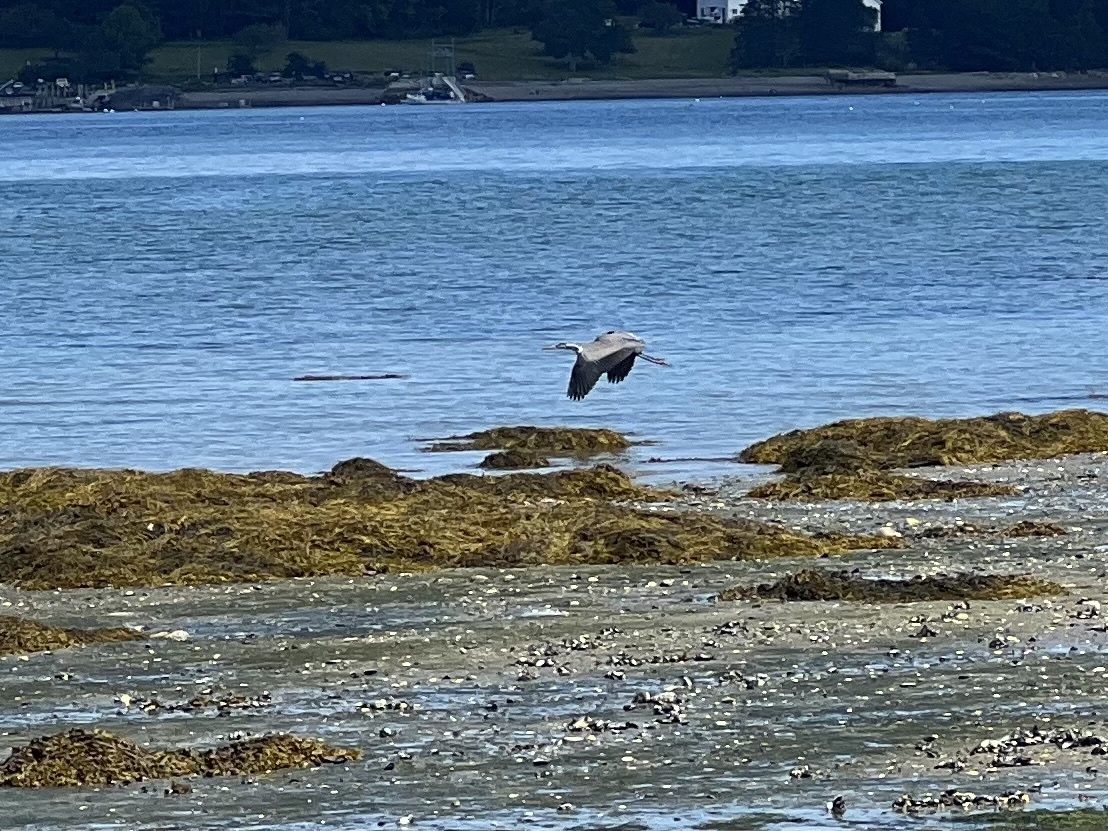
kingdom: Animalia
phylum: Chordata
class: Aves
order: Pelecaniformes
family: Ardeidae
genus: Ardea
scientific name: Ardea herodias
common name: Great blue heron
